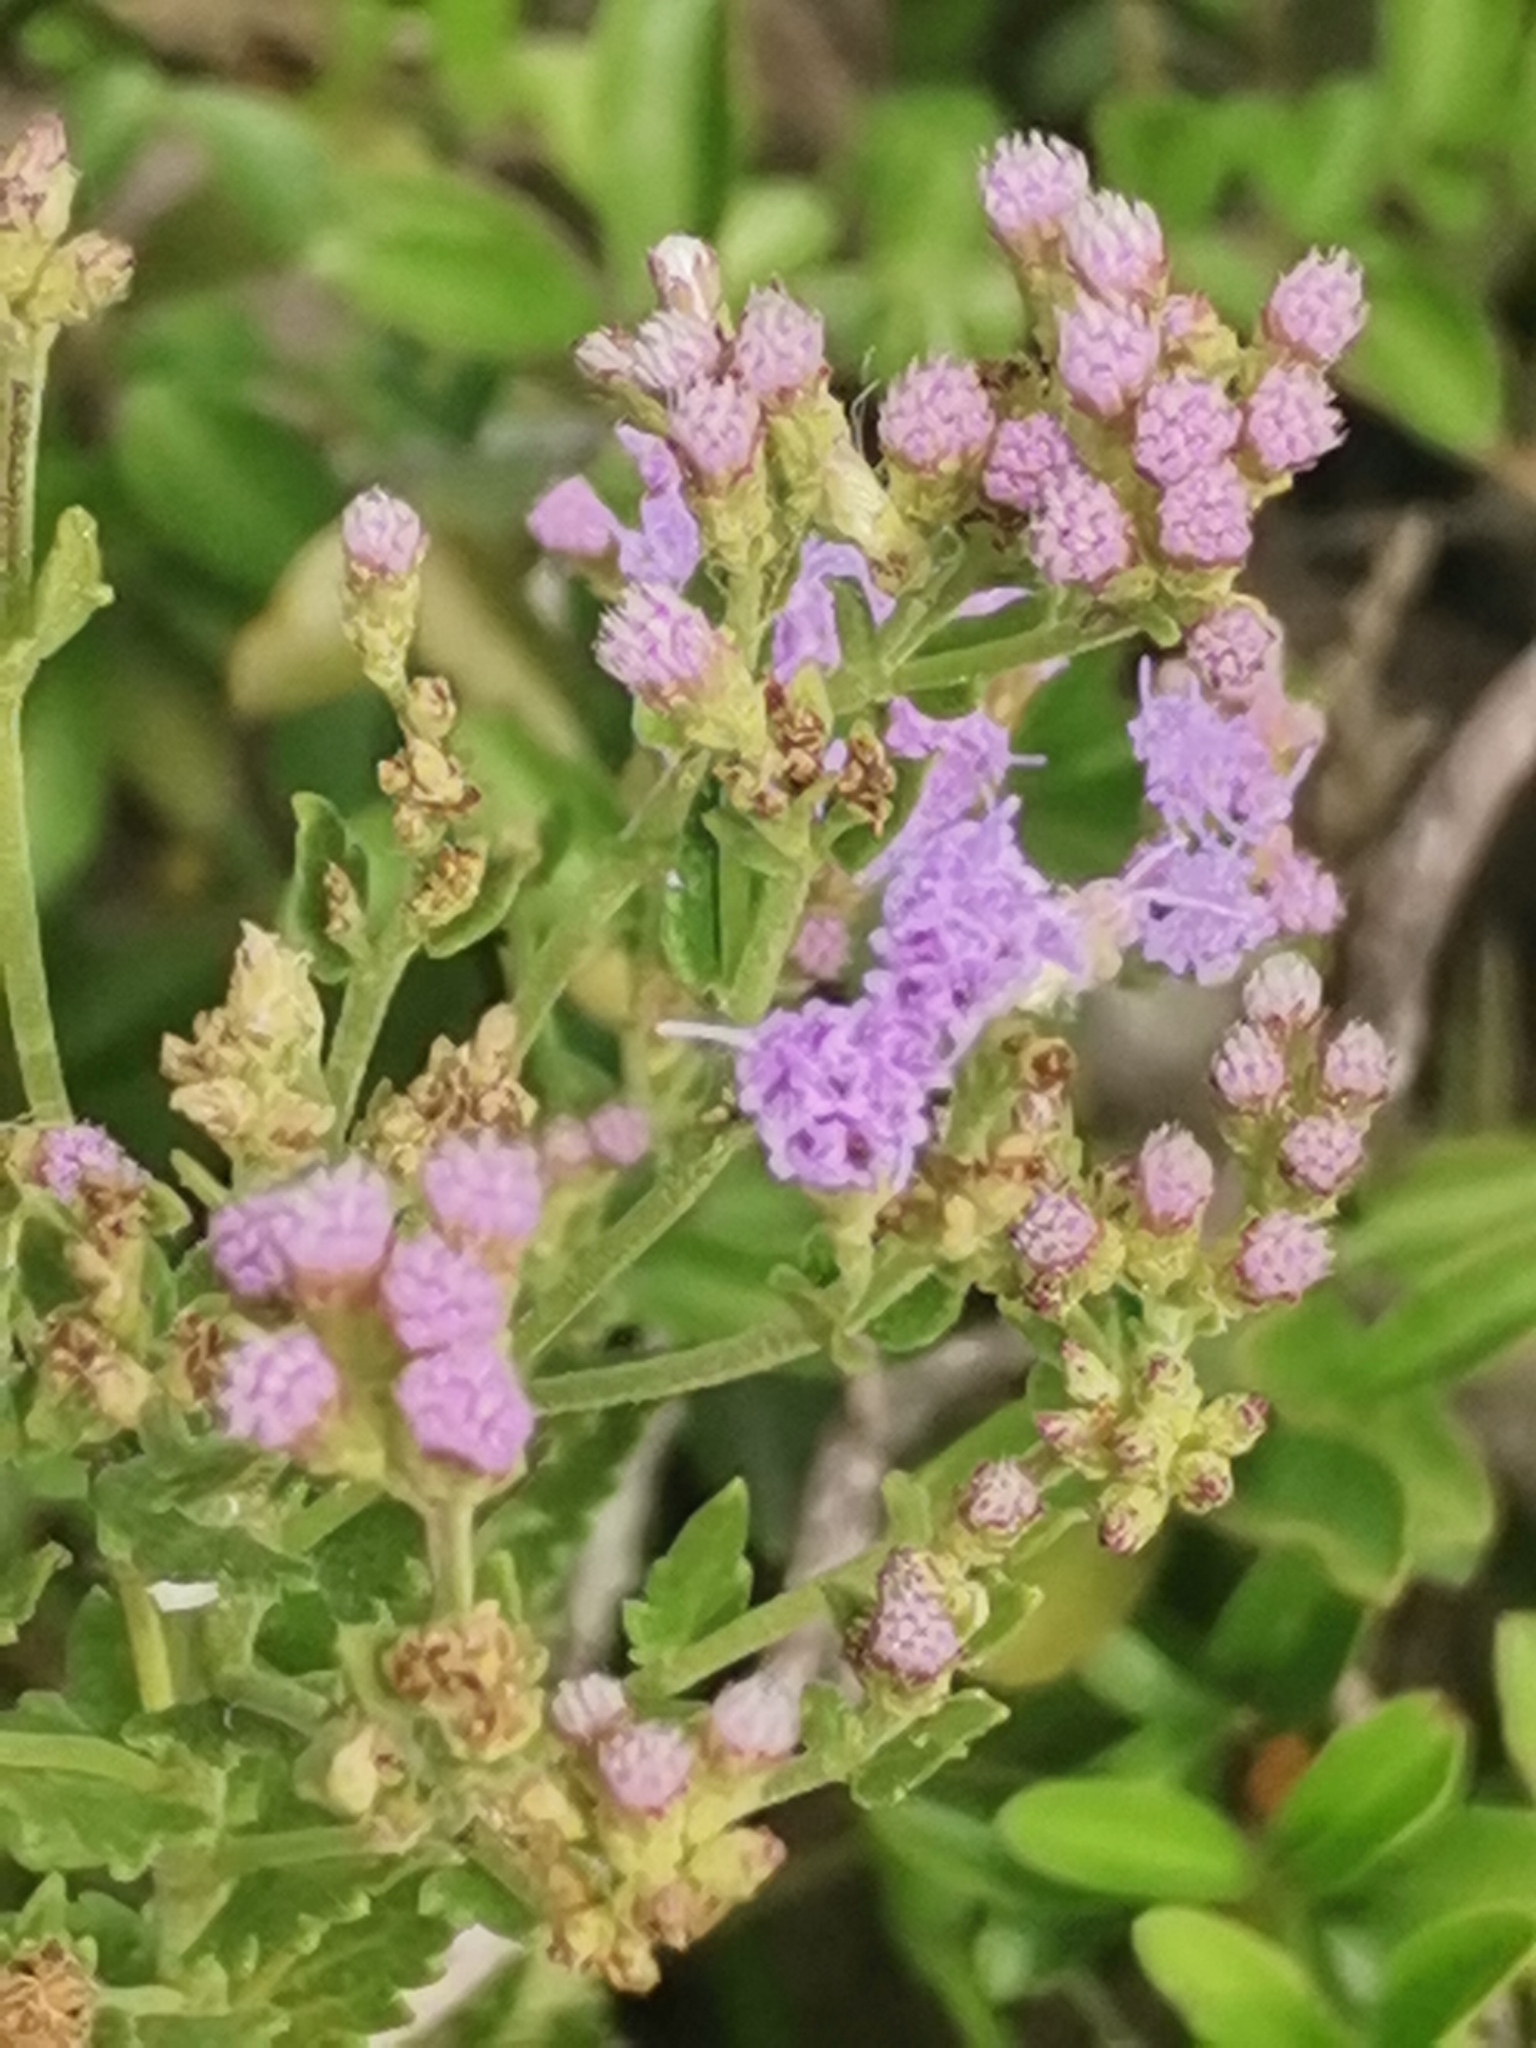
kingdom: Plantae
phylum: Tracheophyta
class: Magnoliopsida
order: Asterales
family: Asteraceae
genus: Chromolaena
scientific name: Chromolaena hirsuta
